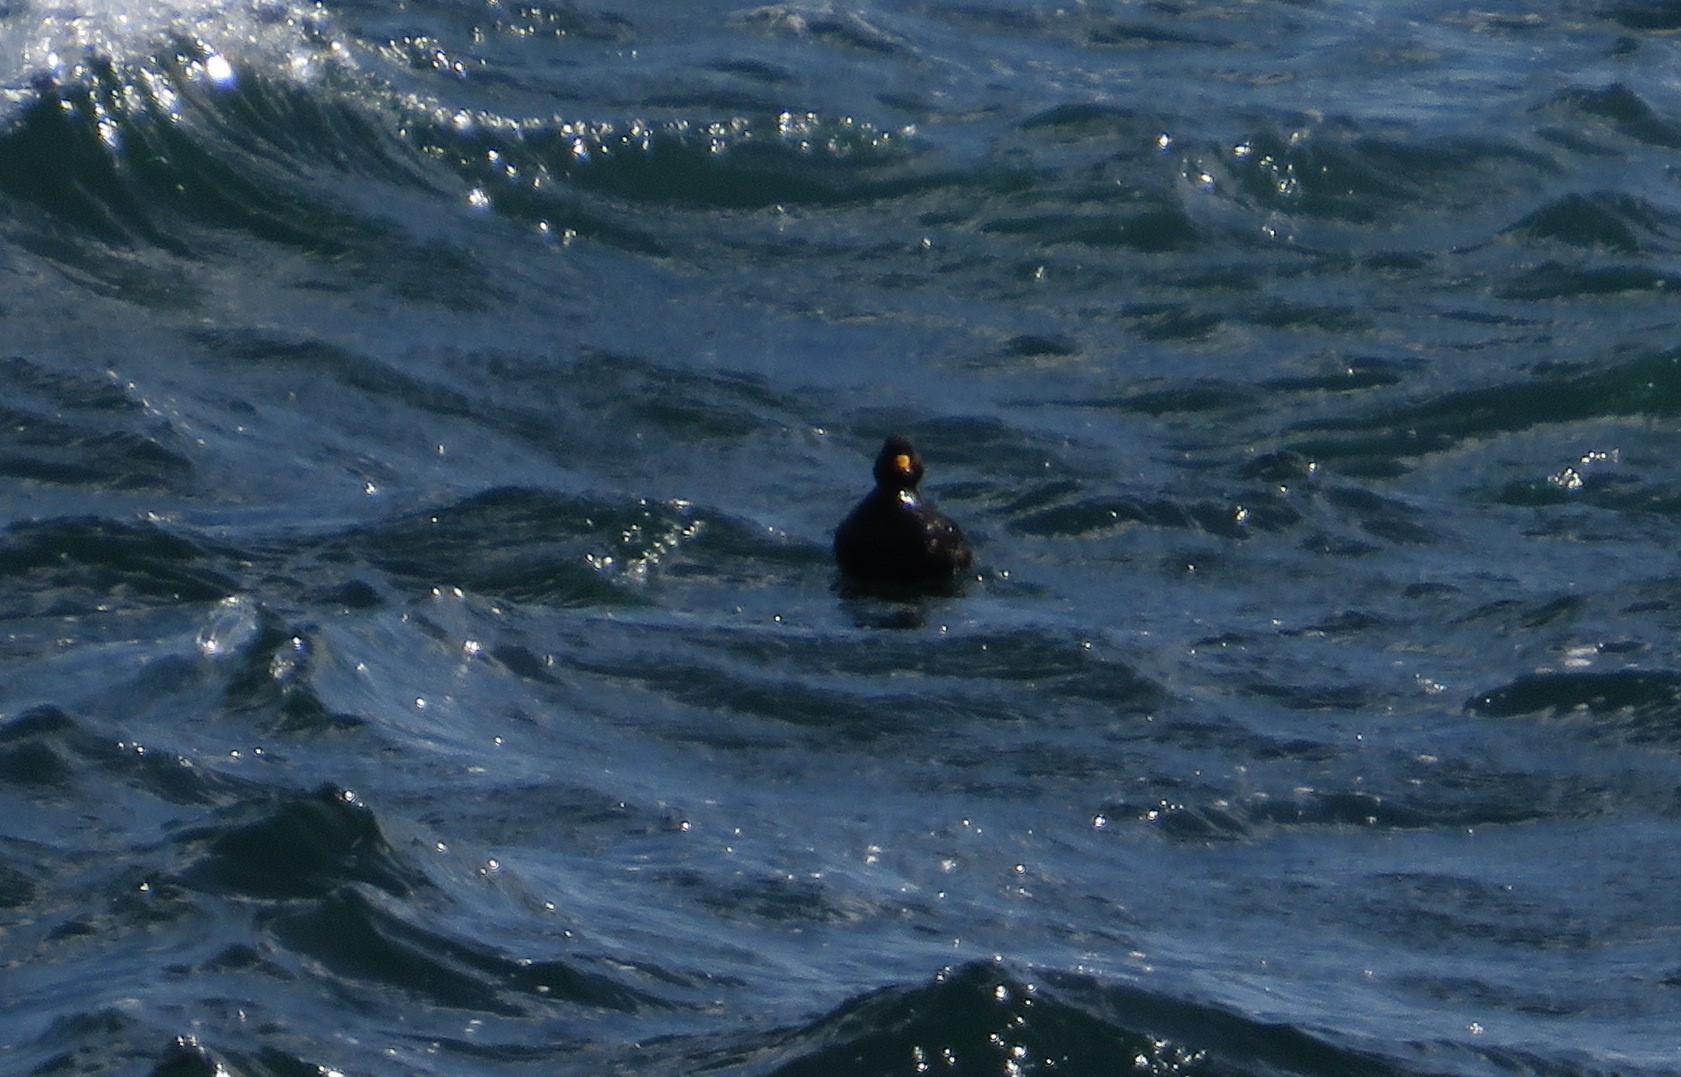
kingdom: Animalia
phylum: Chordata
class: Aves
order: Anseriformes
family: Anatidae
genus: Melanitta
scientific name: Melanitta americana
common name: Black scoter
